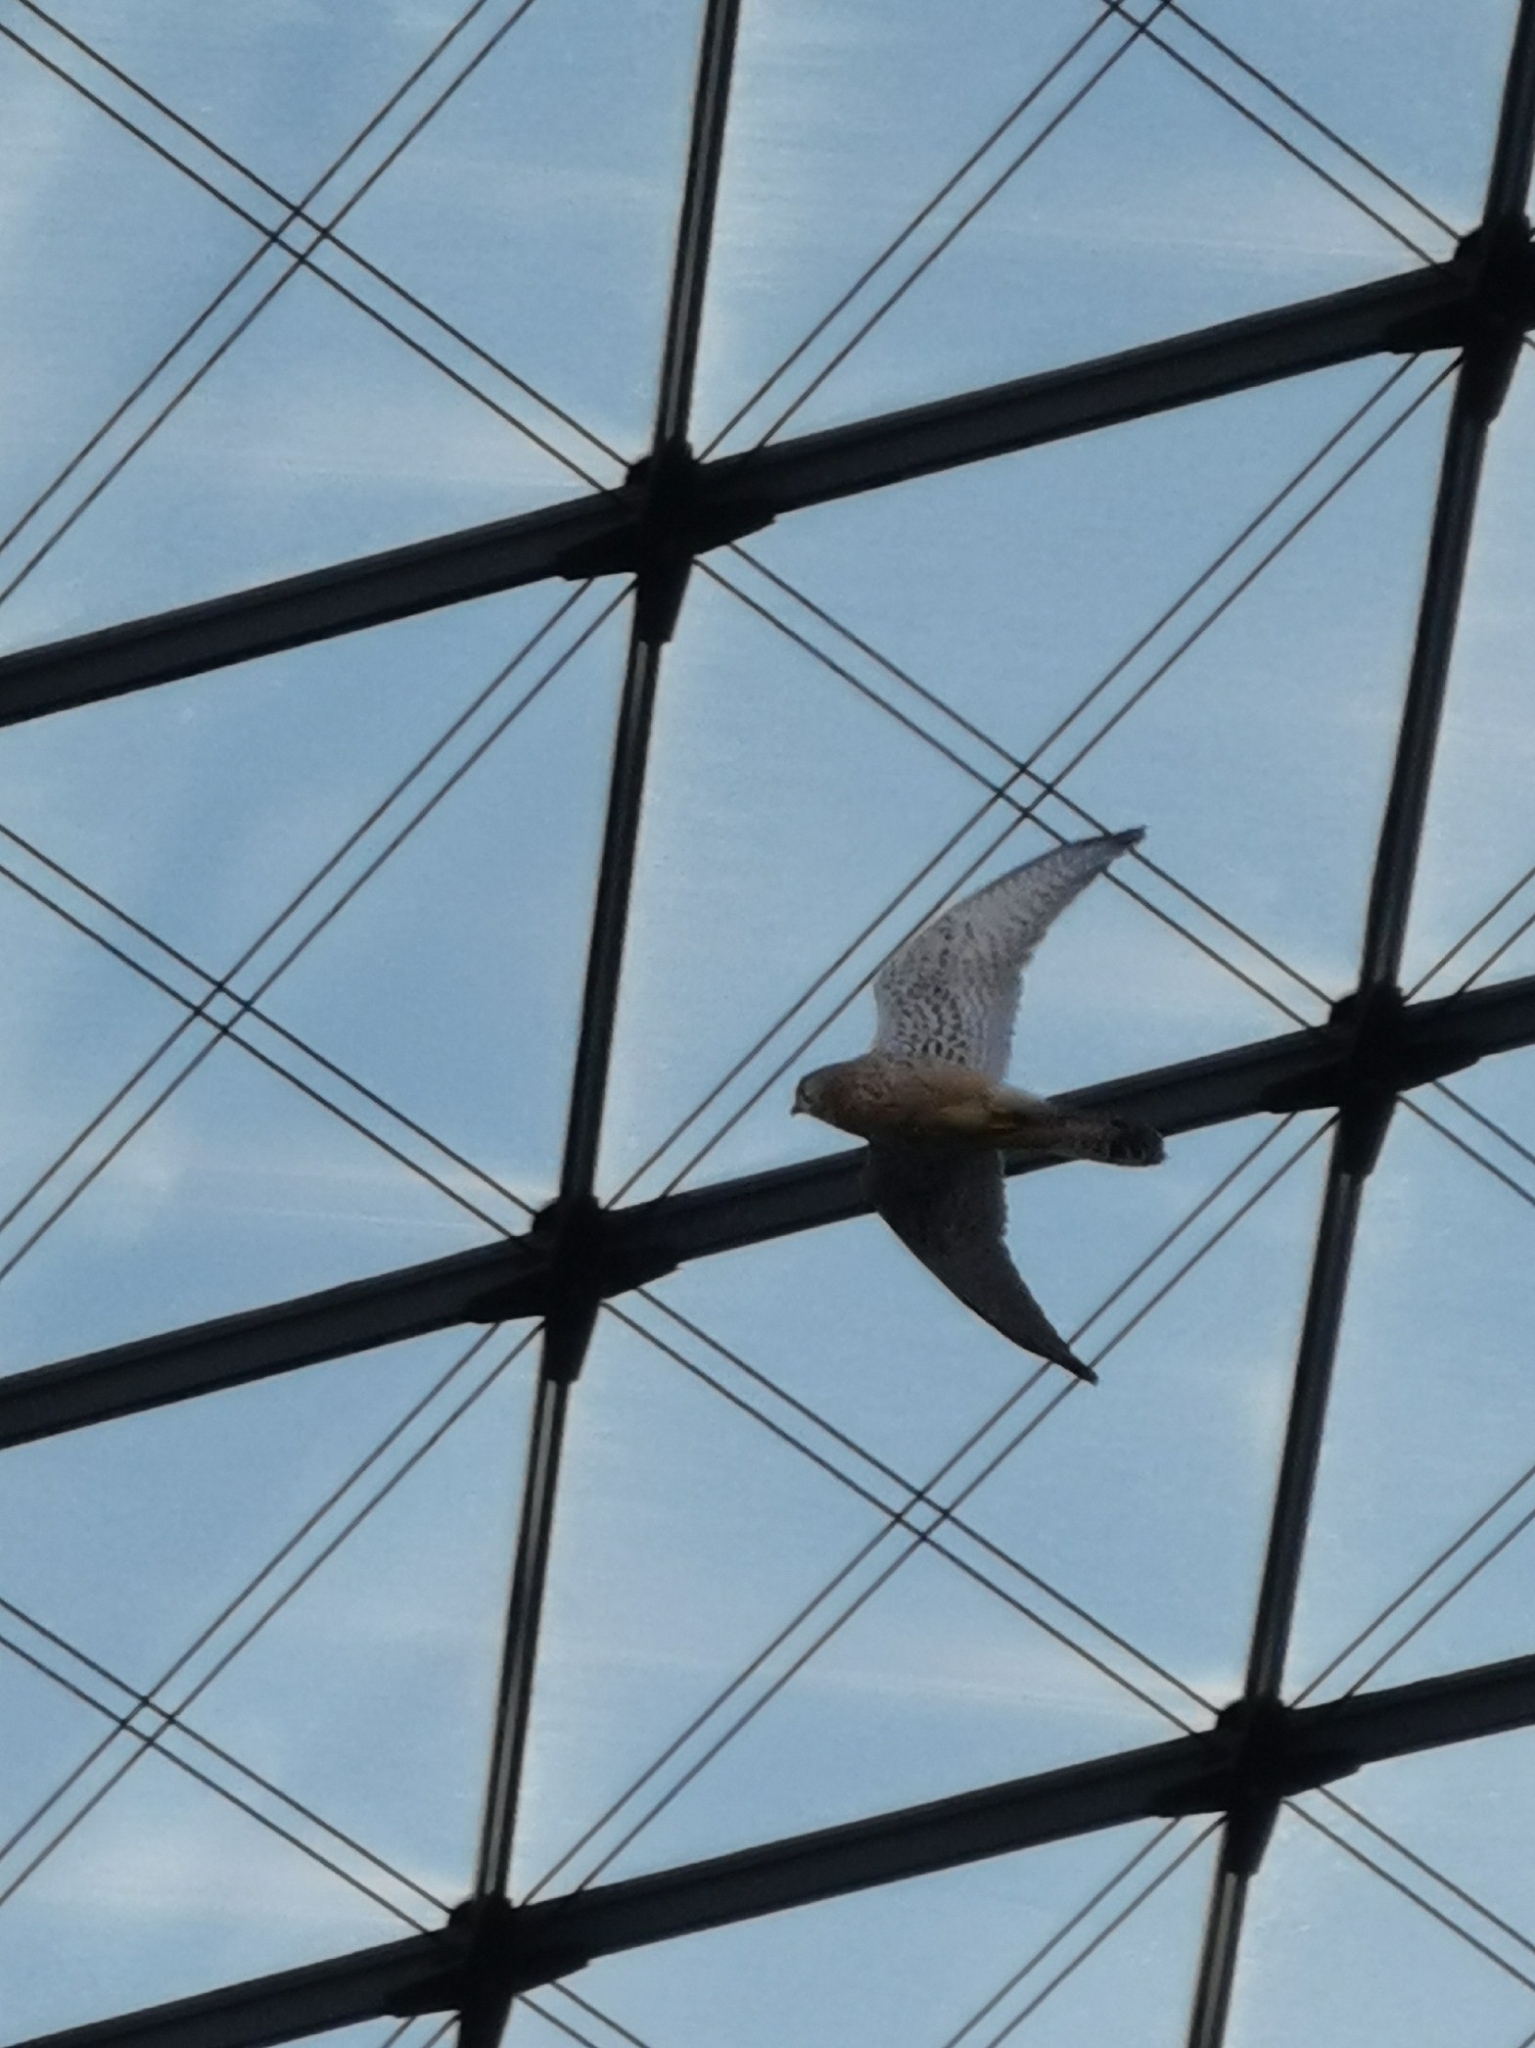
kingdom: Animalia
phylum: Chordata
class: Aves
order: Falconiformes
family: Falconidae
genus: Falco
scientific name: Falco tinnunculus
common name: Common kestrel
